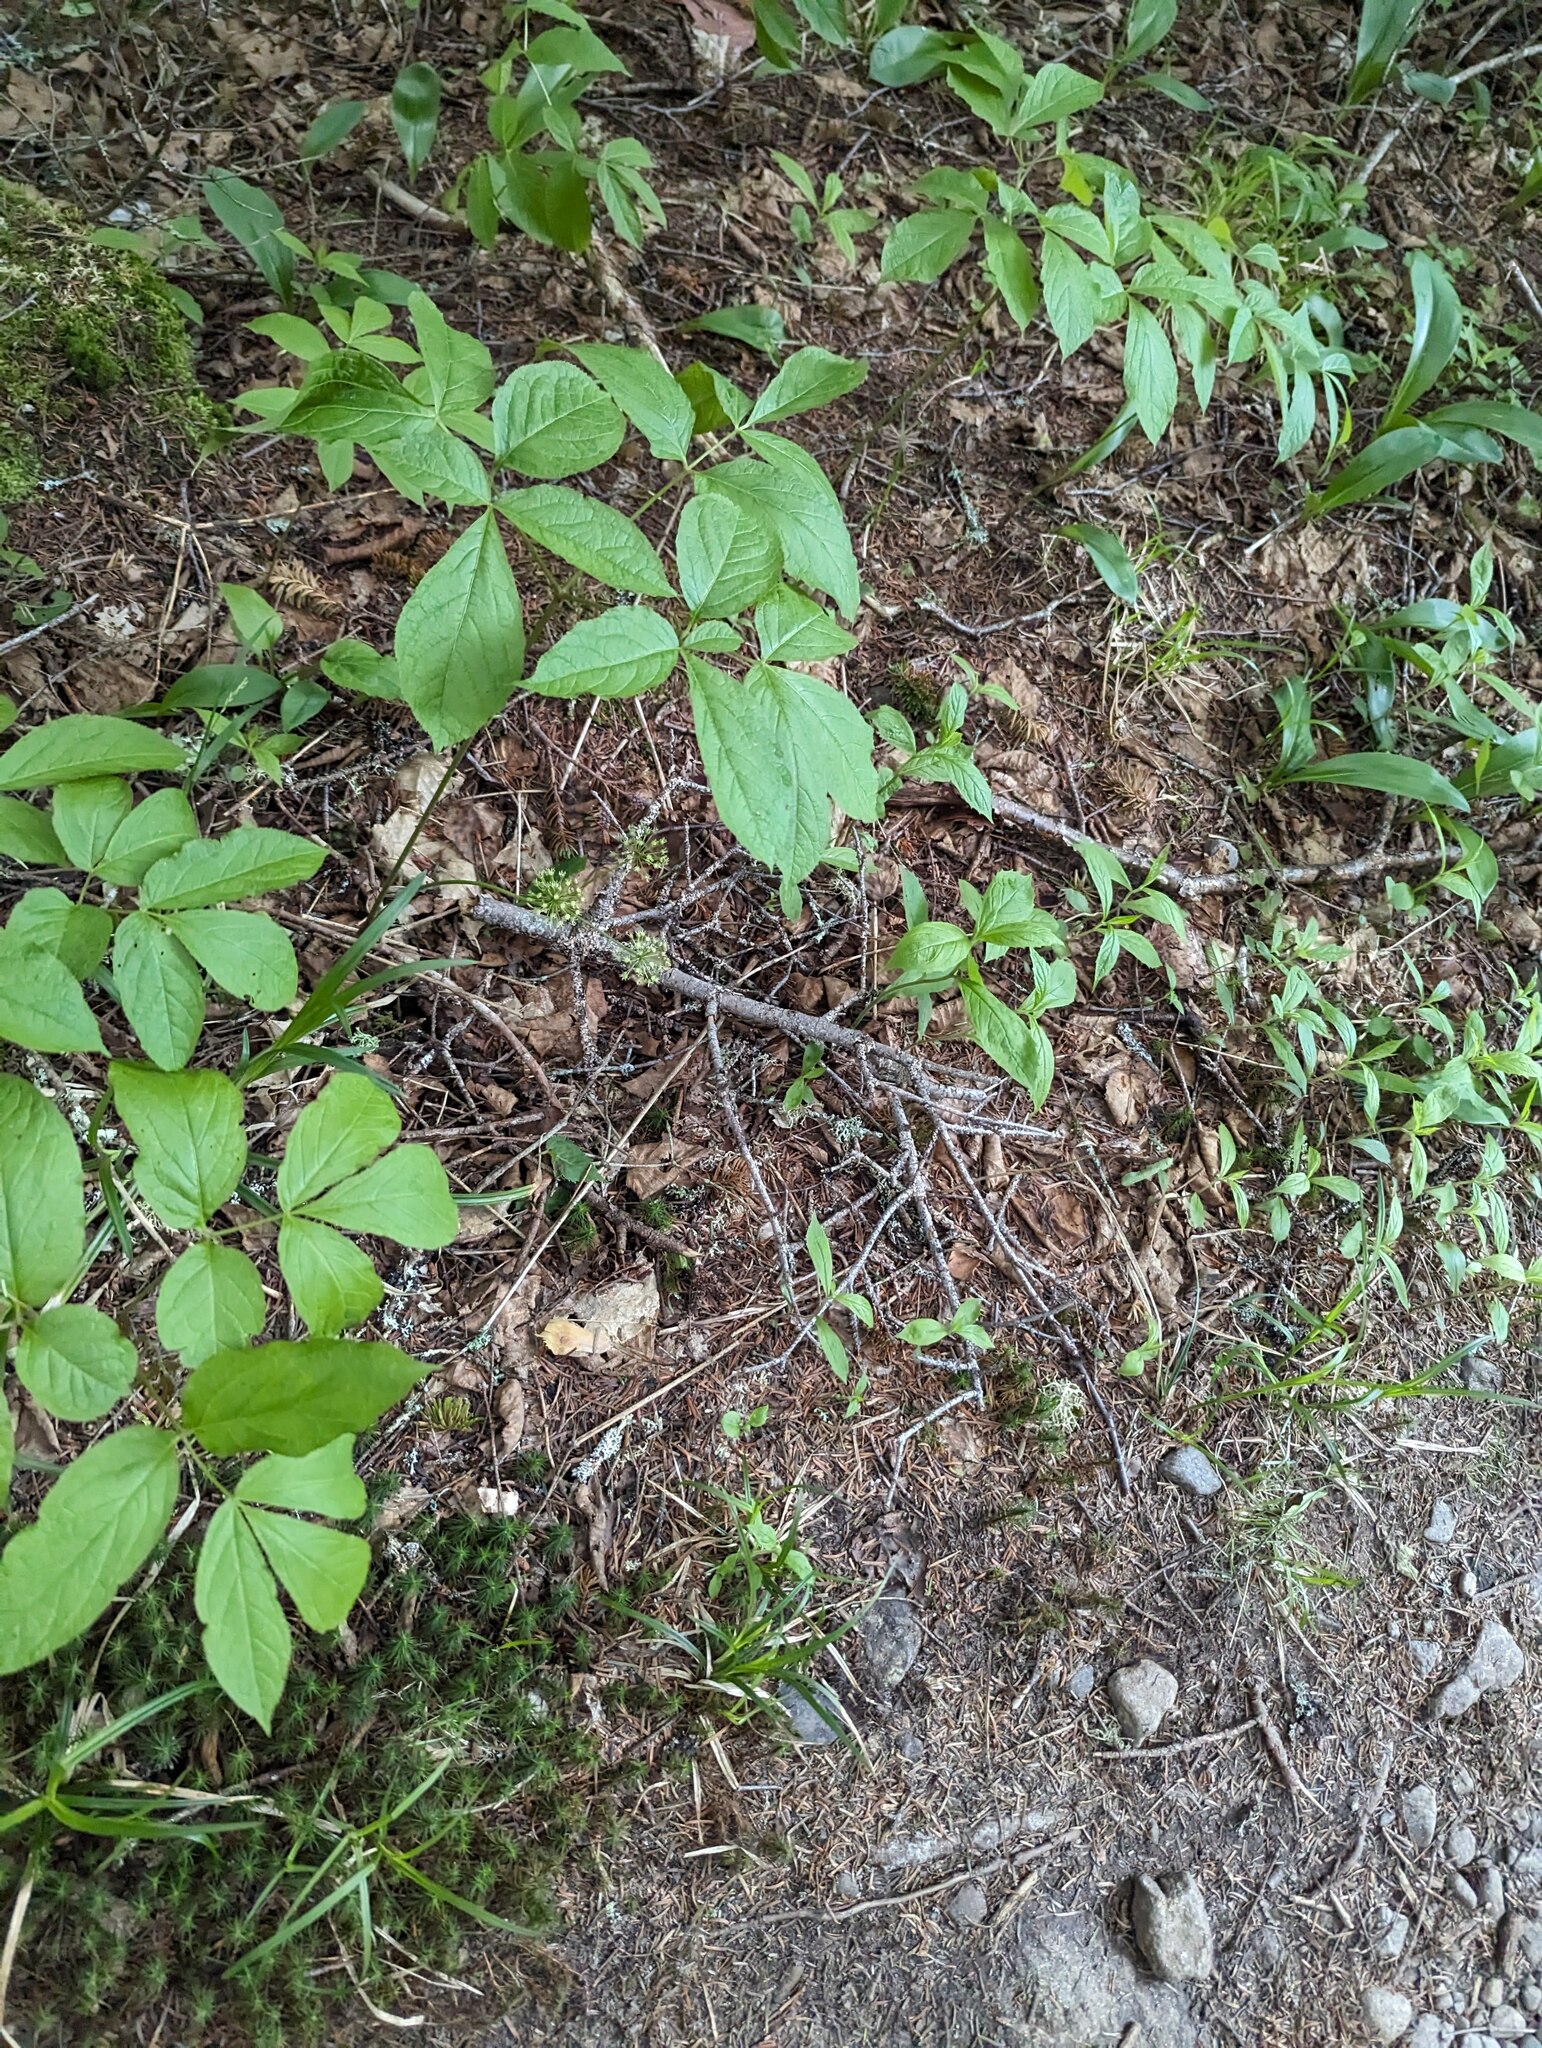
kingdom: Plantae
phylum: Tracheophyta
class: Magnoliopsida
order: Apiales
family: Araliaceae
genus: Aralia
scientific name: Aralia nudicaulis
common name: Wild sarsaparilla
